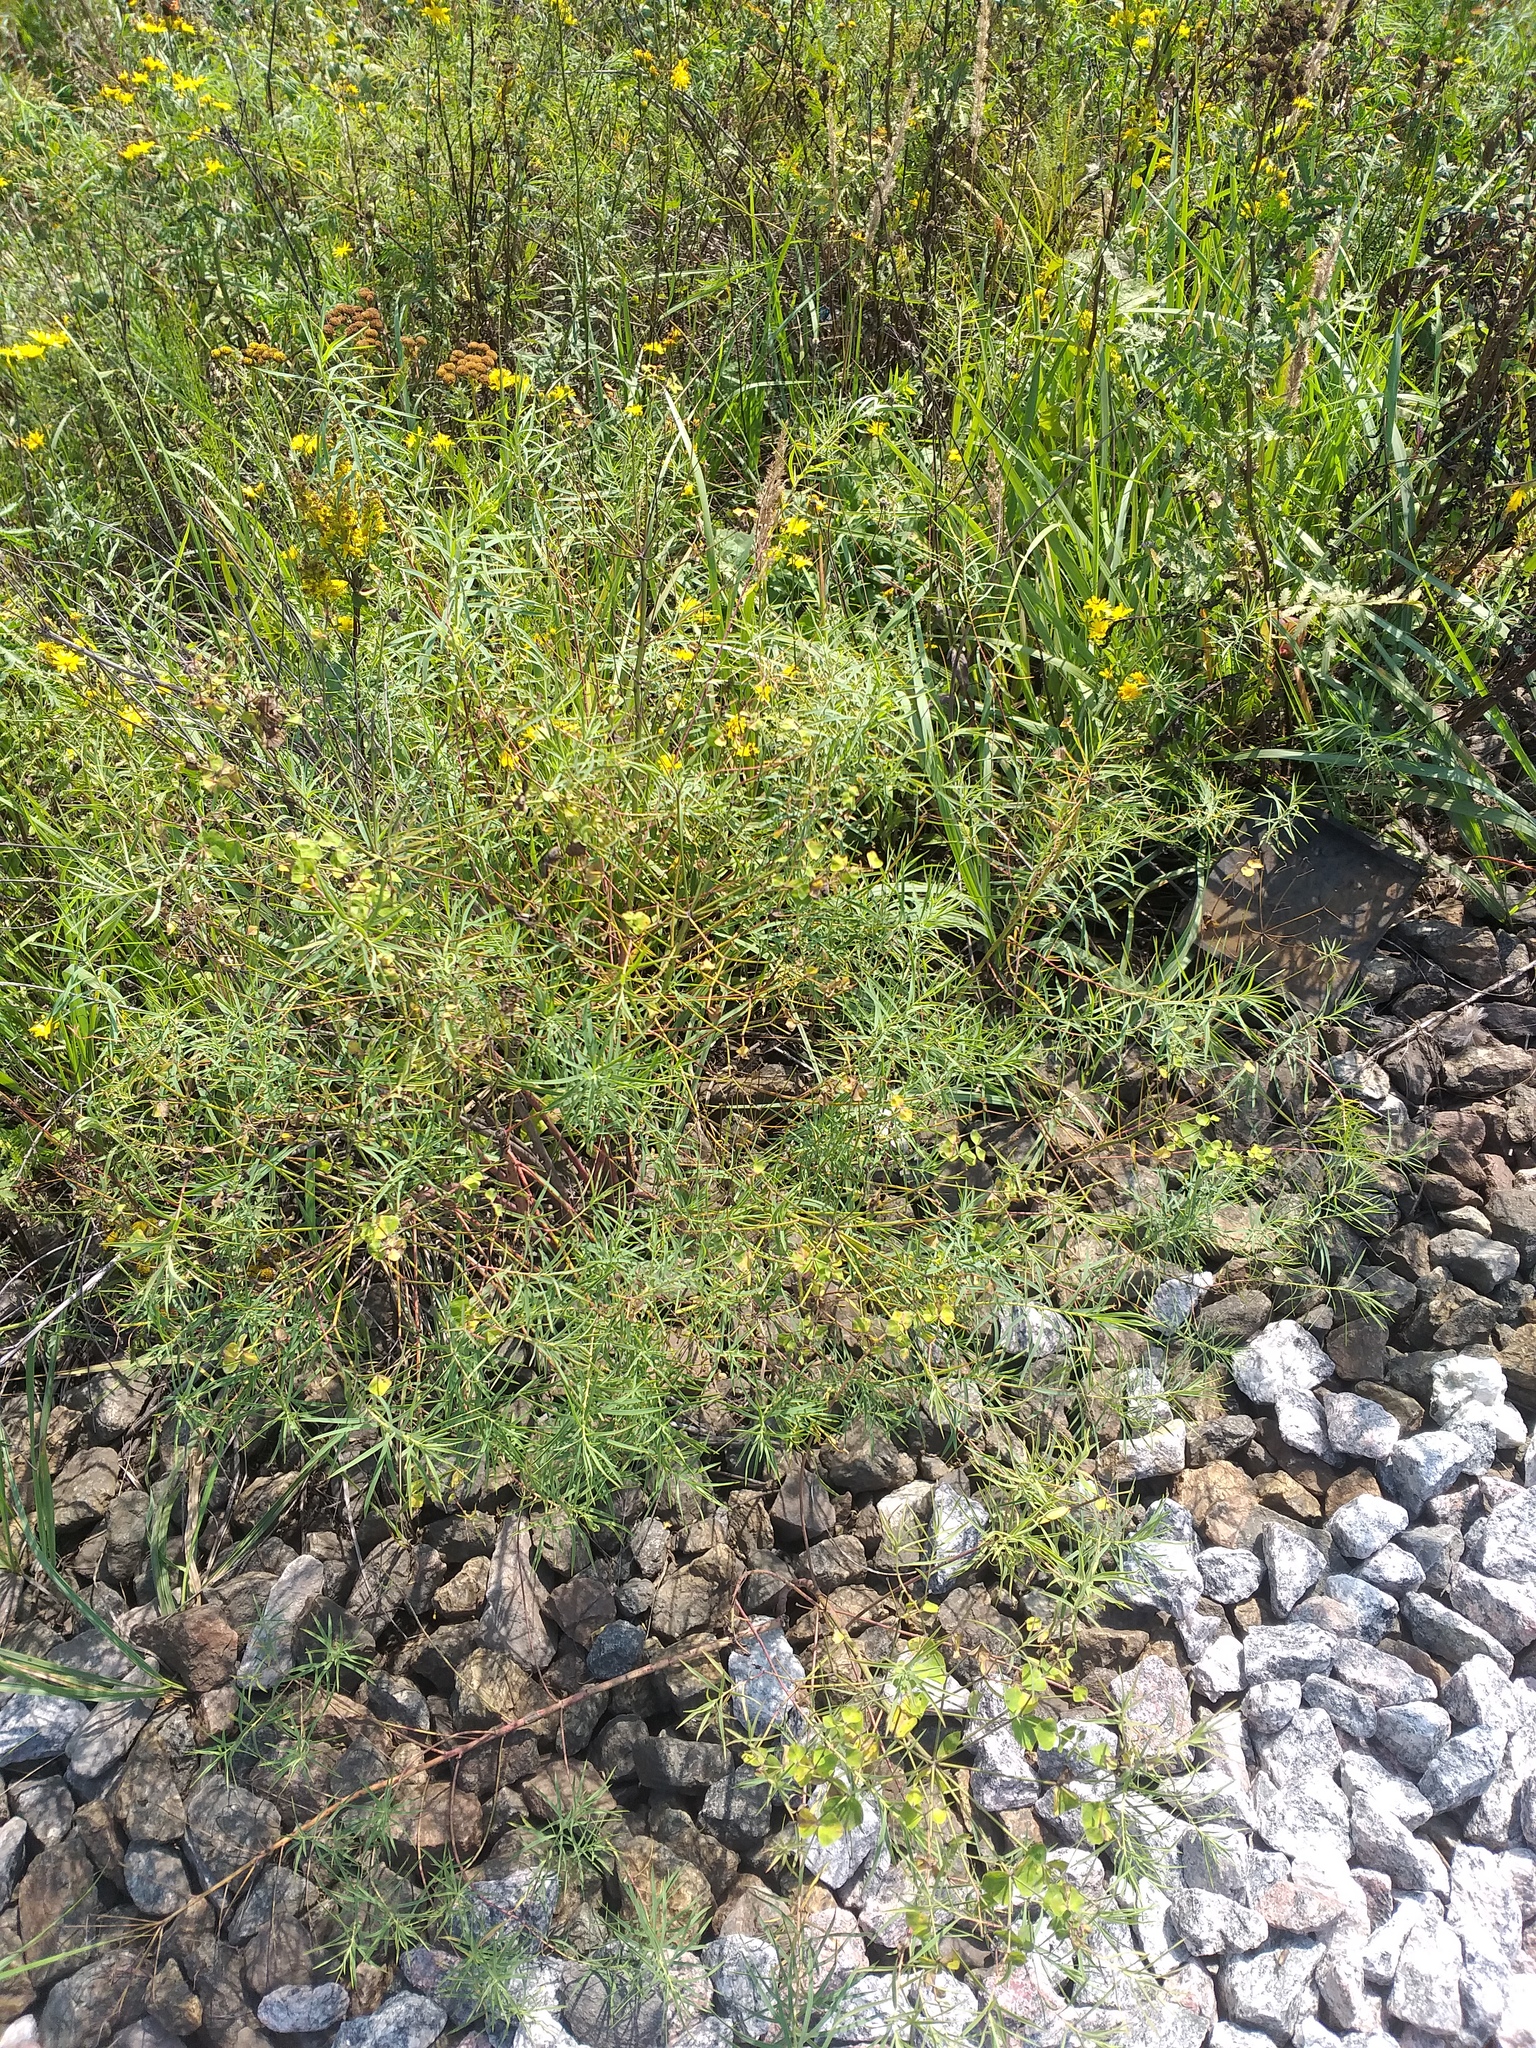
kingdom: Plantae
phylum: Tracheophyta
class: Magnoliopsida
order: Malpighiales
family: Euphorbiaceae
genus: Euphorbia
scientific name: Euphorbia virgata
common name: Leafy spurge
